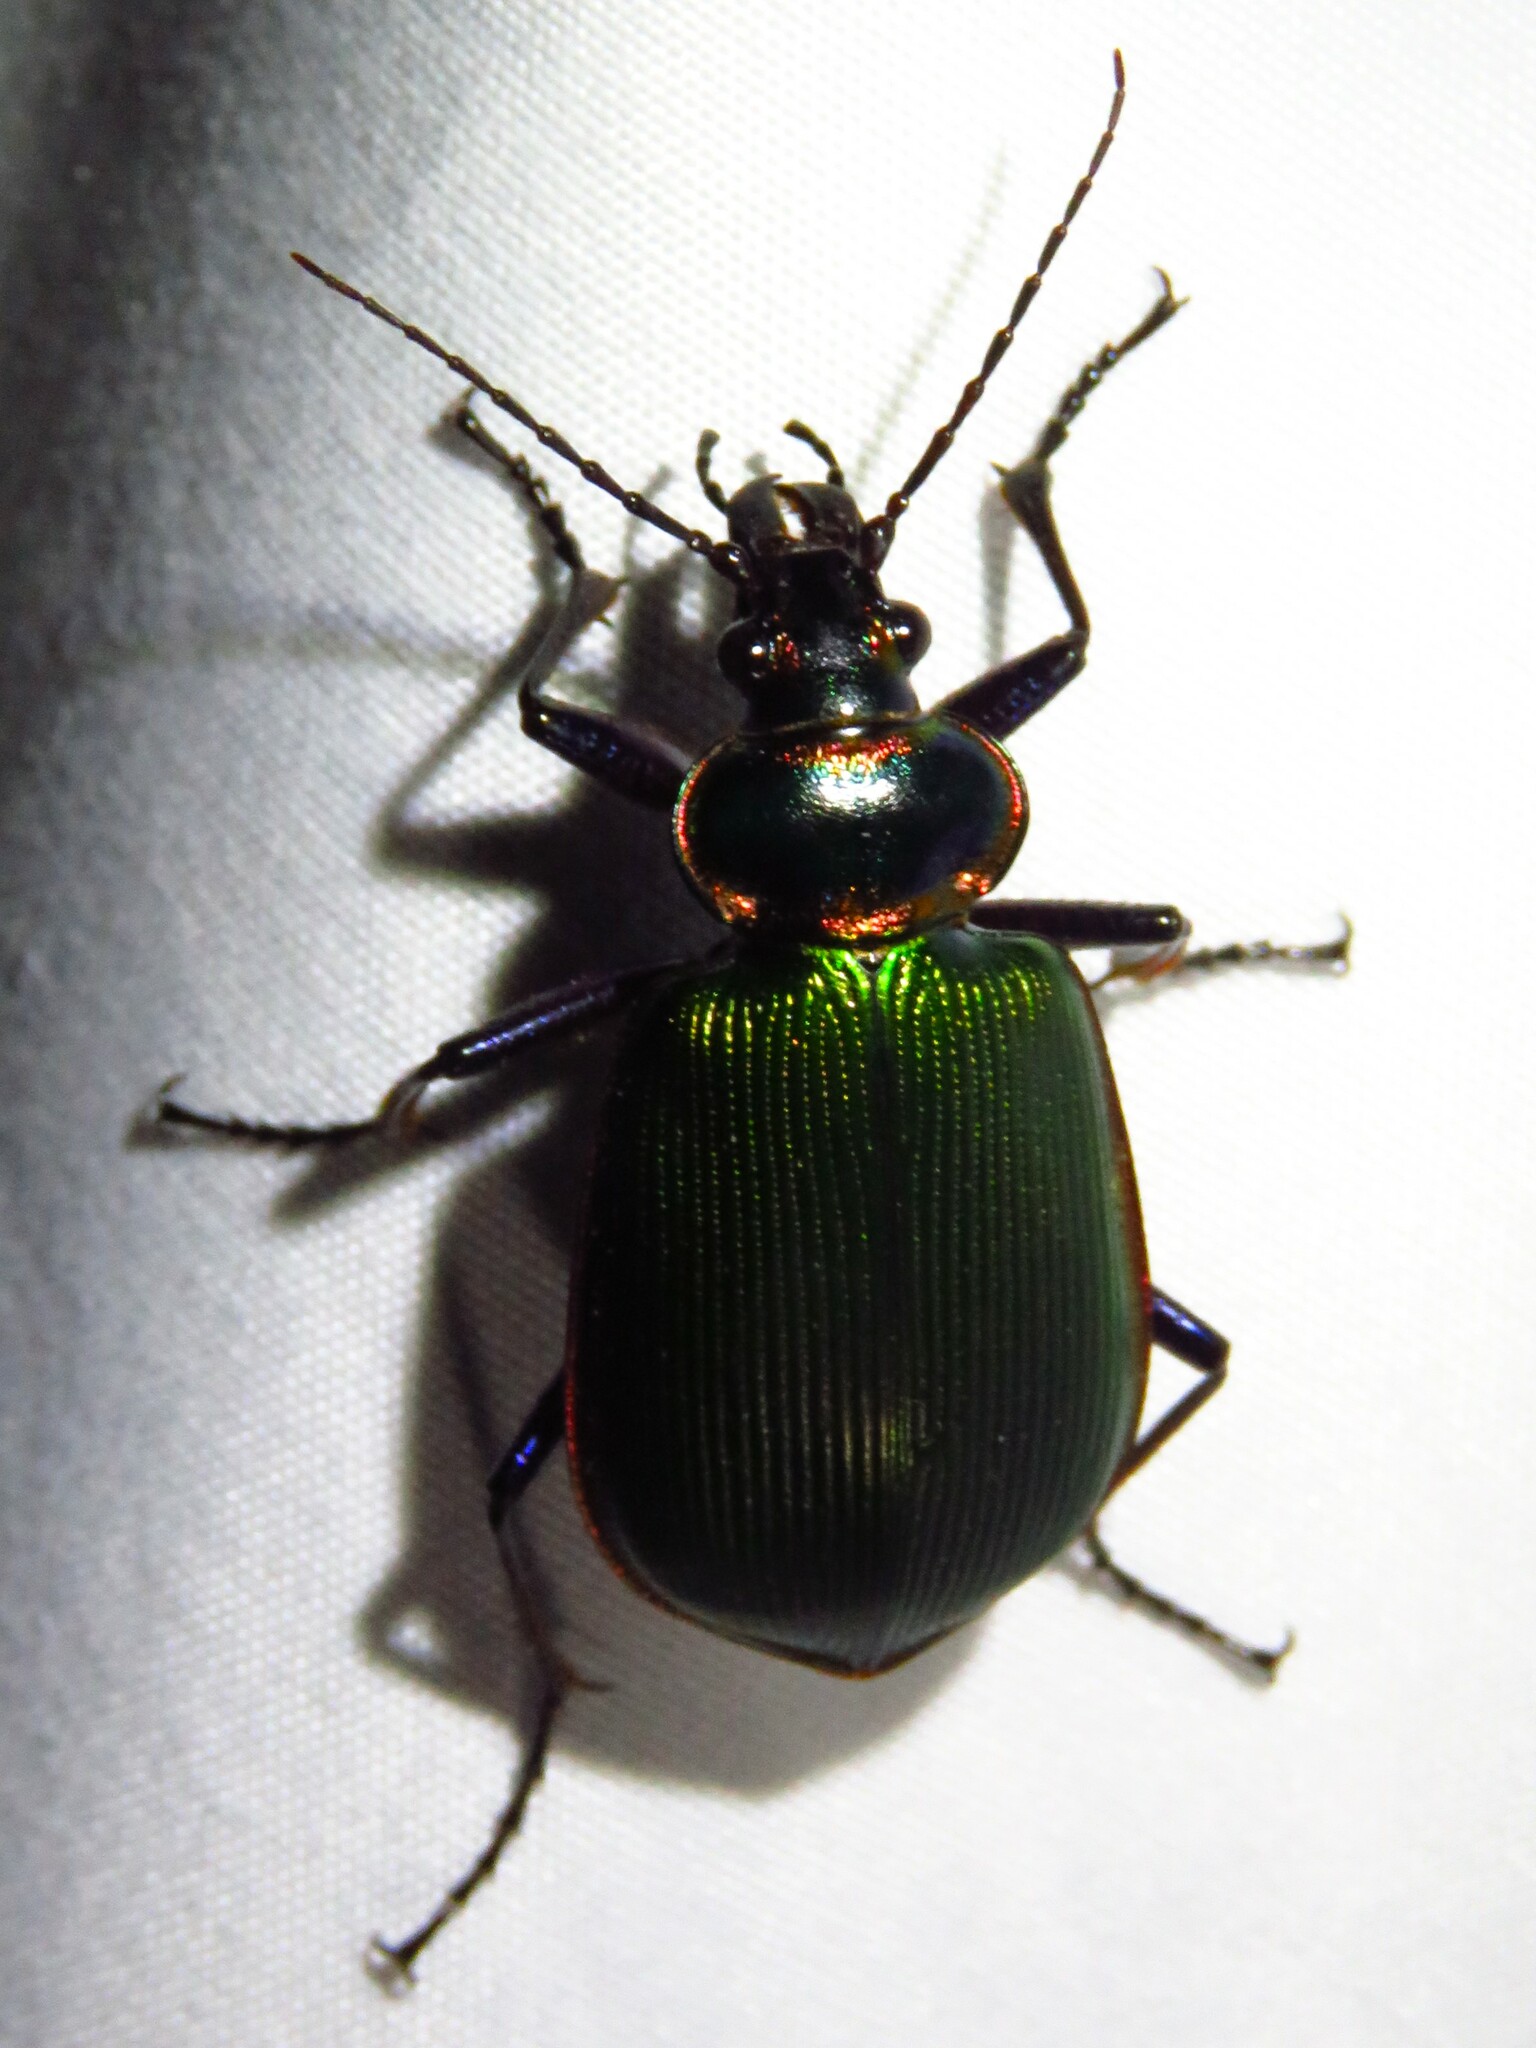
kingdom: Animalia
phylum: Arthropoda
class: Insecta
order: Coleoptera
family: Carabidae
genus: Calosoma
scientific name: Calosoma scrutator
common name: Fiery searcher beetle
